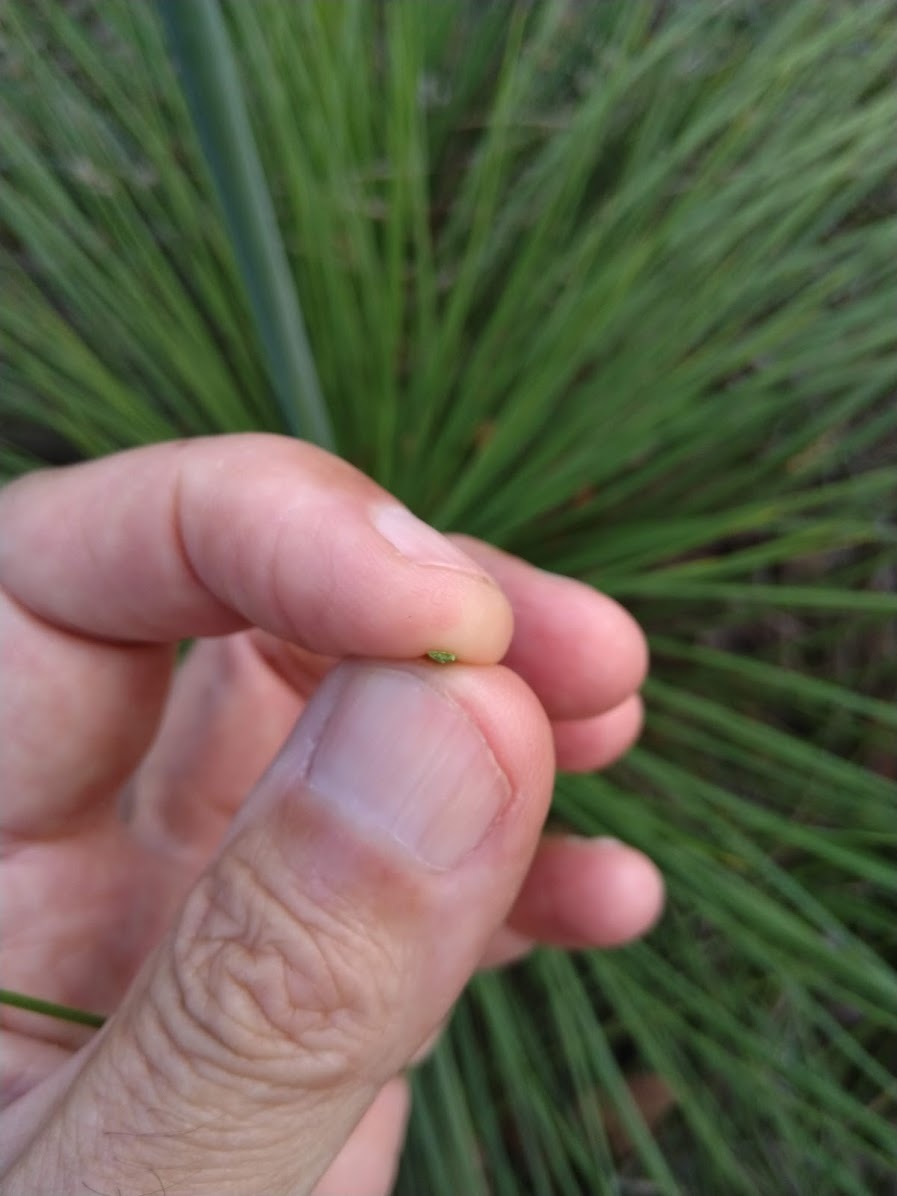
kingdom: Plantae
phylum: Tracheophyta
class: Liliopsida
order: Asparagales
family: Asphodelaceae
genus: Xanthorrhoea
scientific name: Xanthorrhoea latifolia
